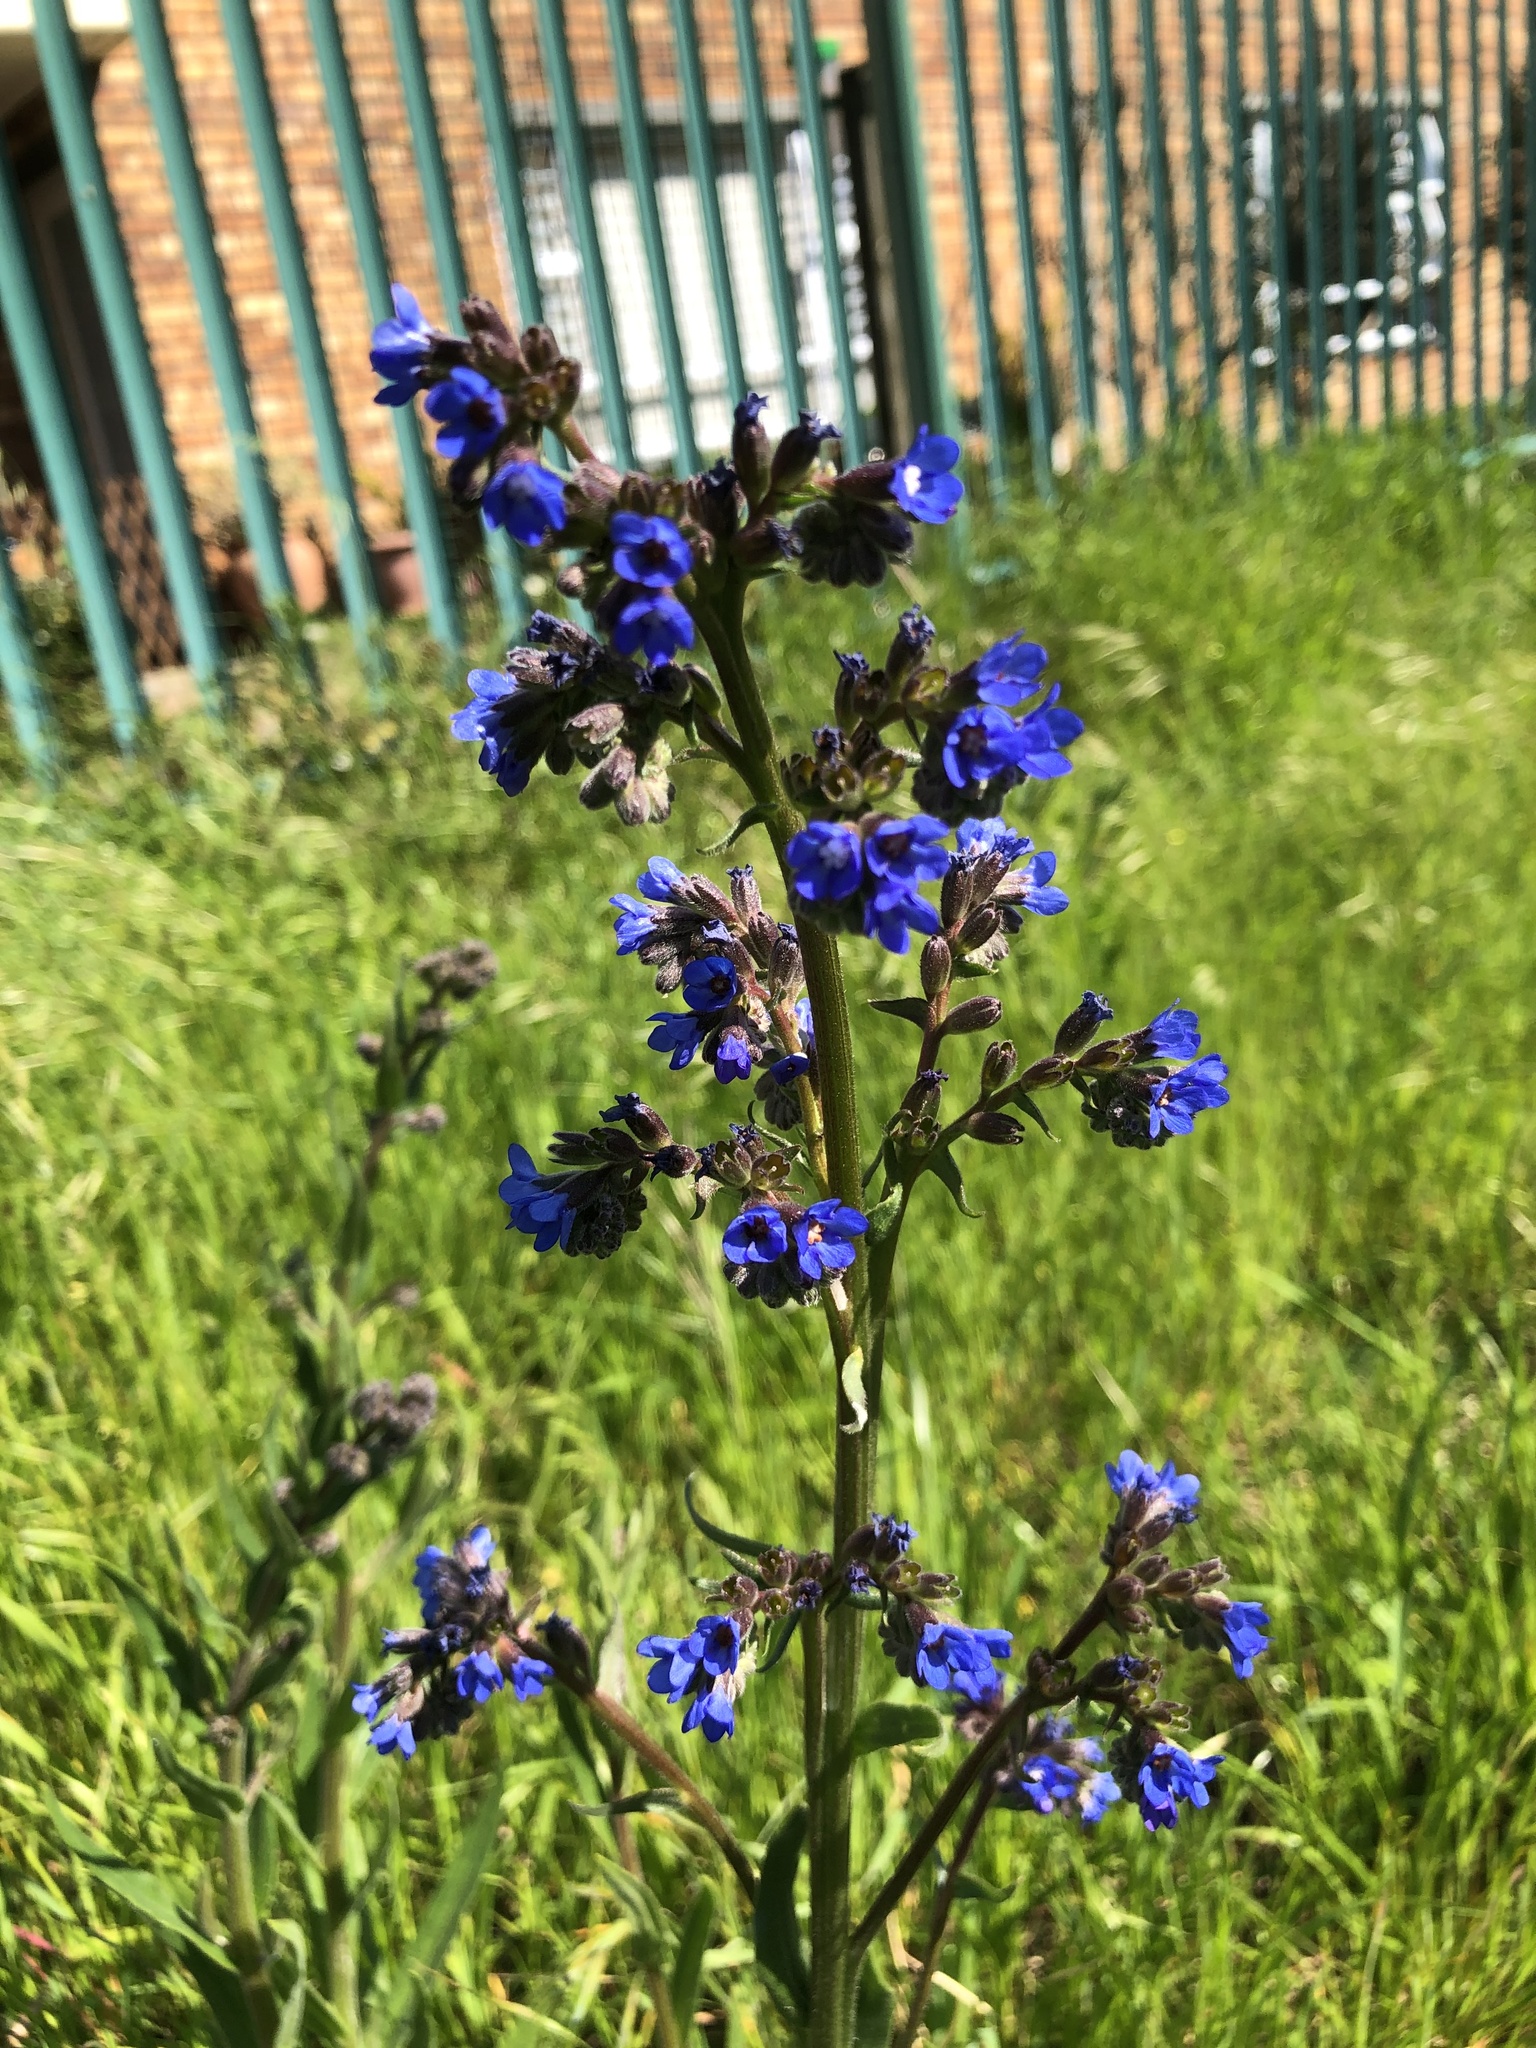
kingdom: Plantae
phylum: Tracheophyta
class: Magnoliopsida
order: Boraginales
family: Boraginaceae
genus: Anchusa
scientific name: Anchusa capensis
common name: Cape bugloss
